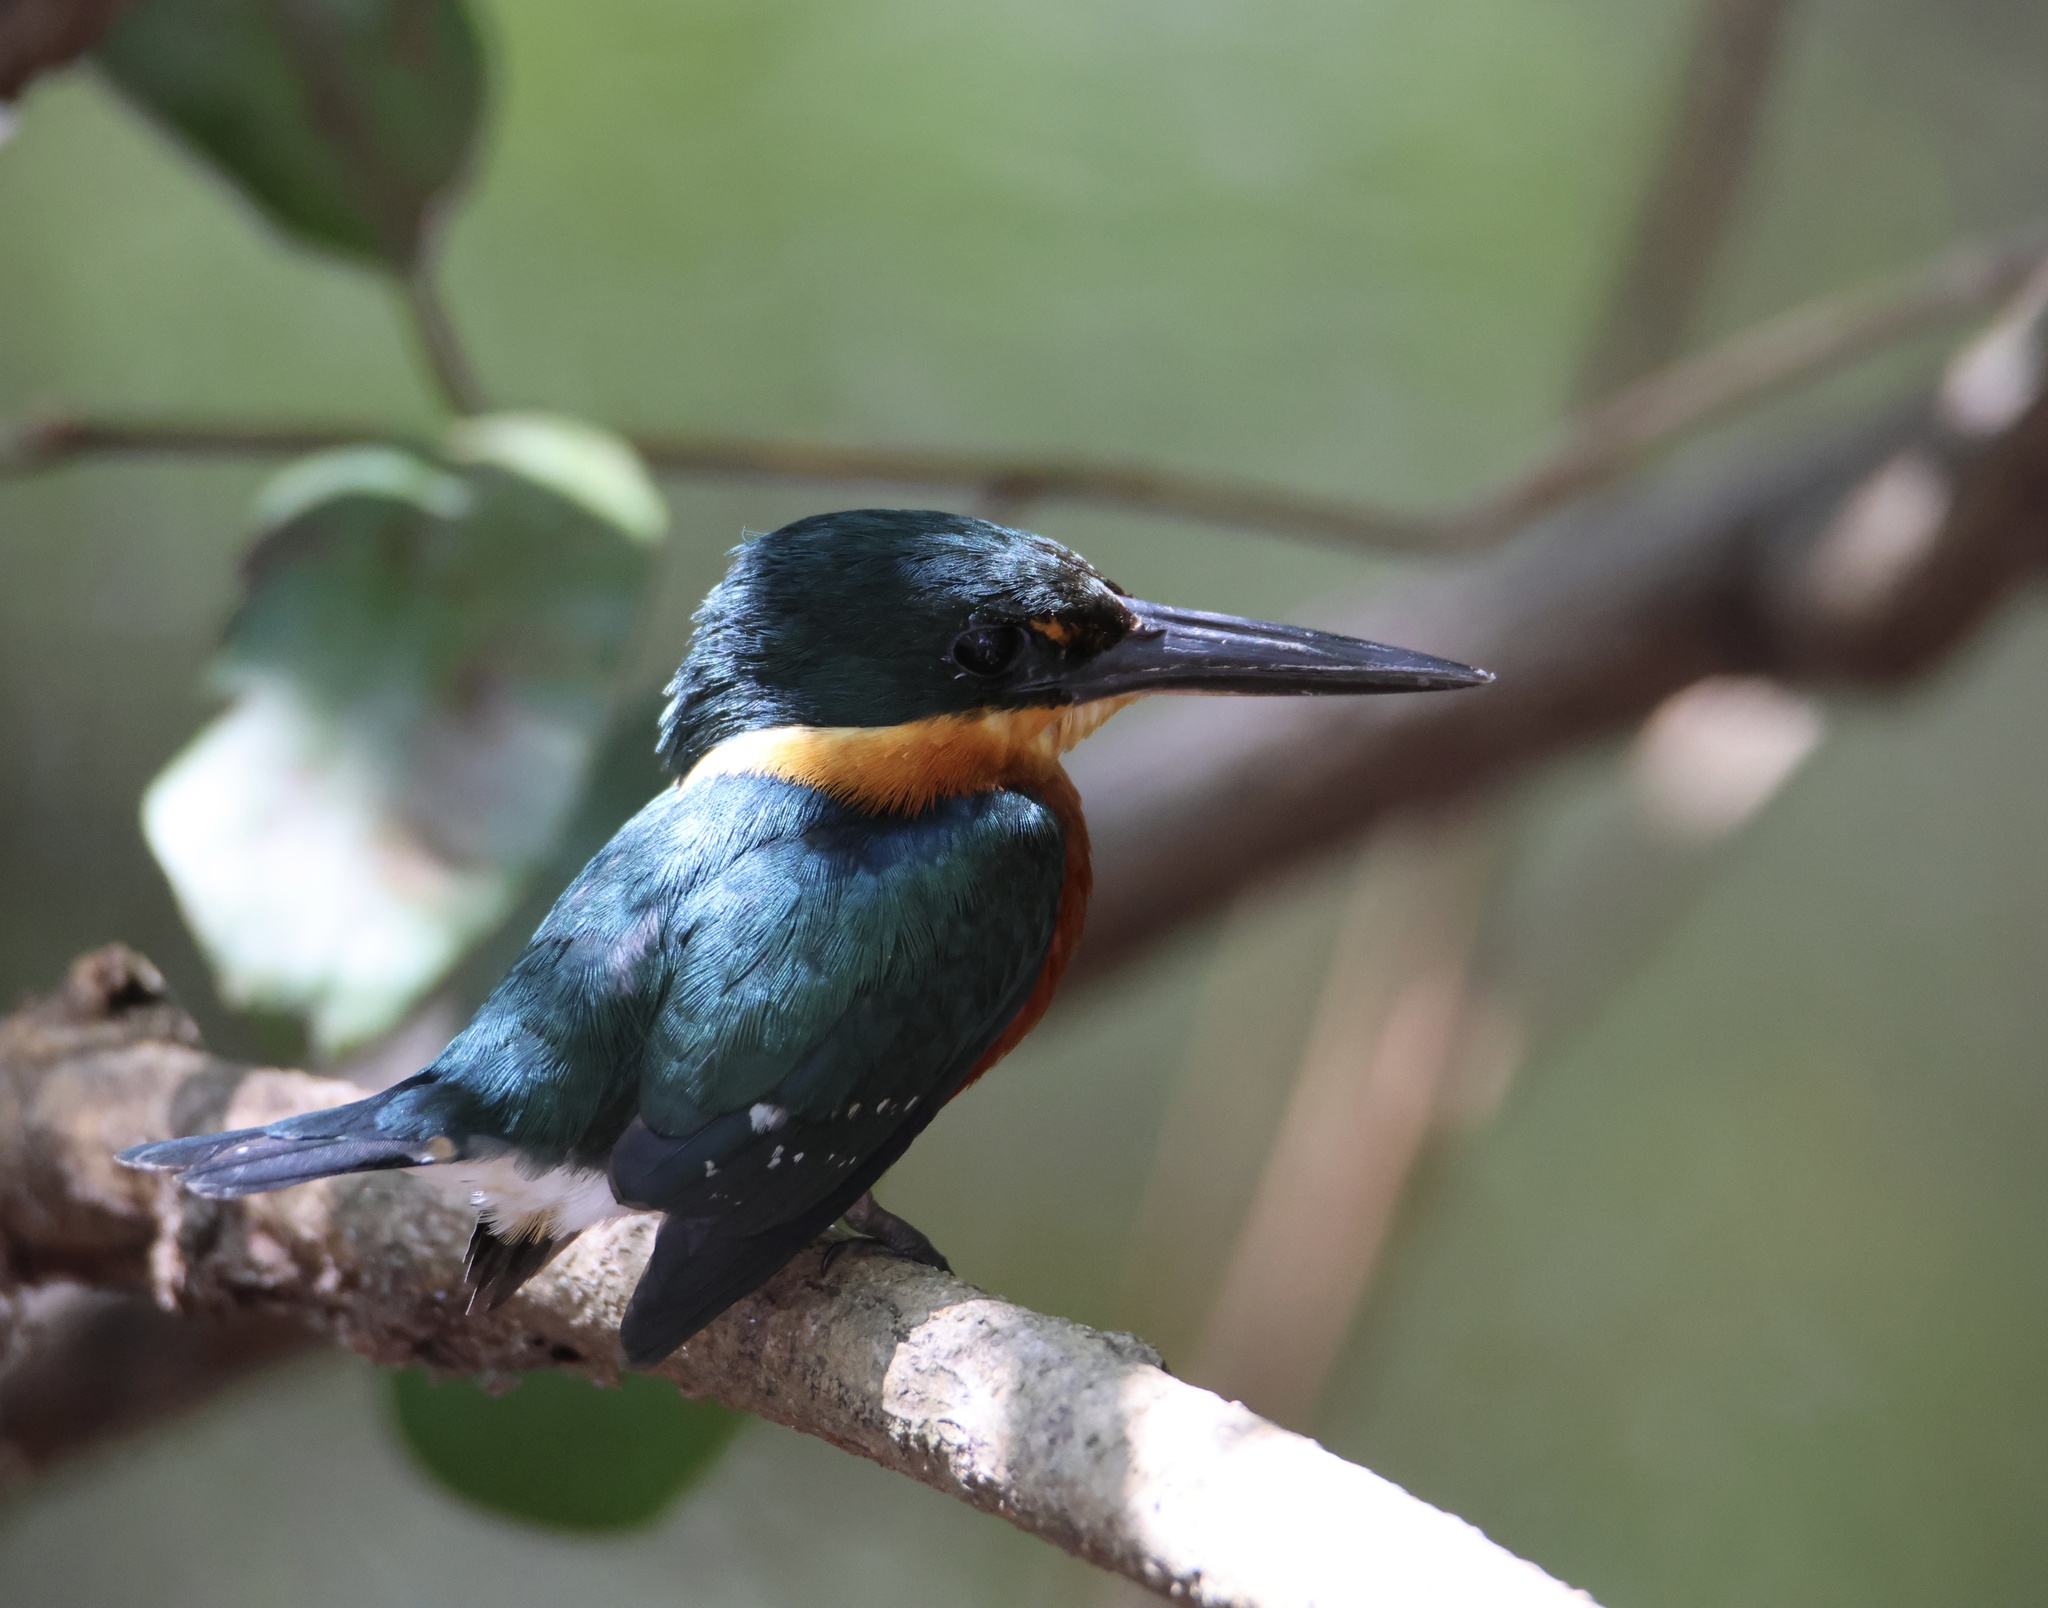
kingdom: Animalia
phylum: Chordata
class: Aves
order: Coraciiformes
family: Alcedinidae
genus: Chloroceryle
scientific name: Chloroceryle aenea
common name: American pygmy kingfisher
